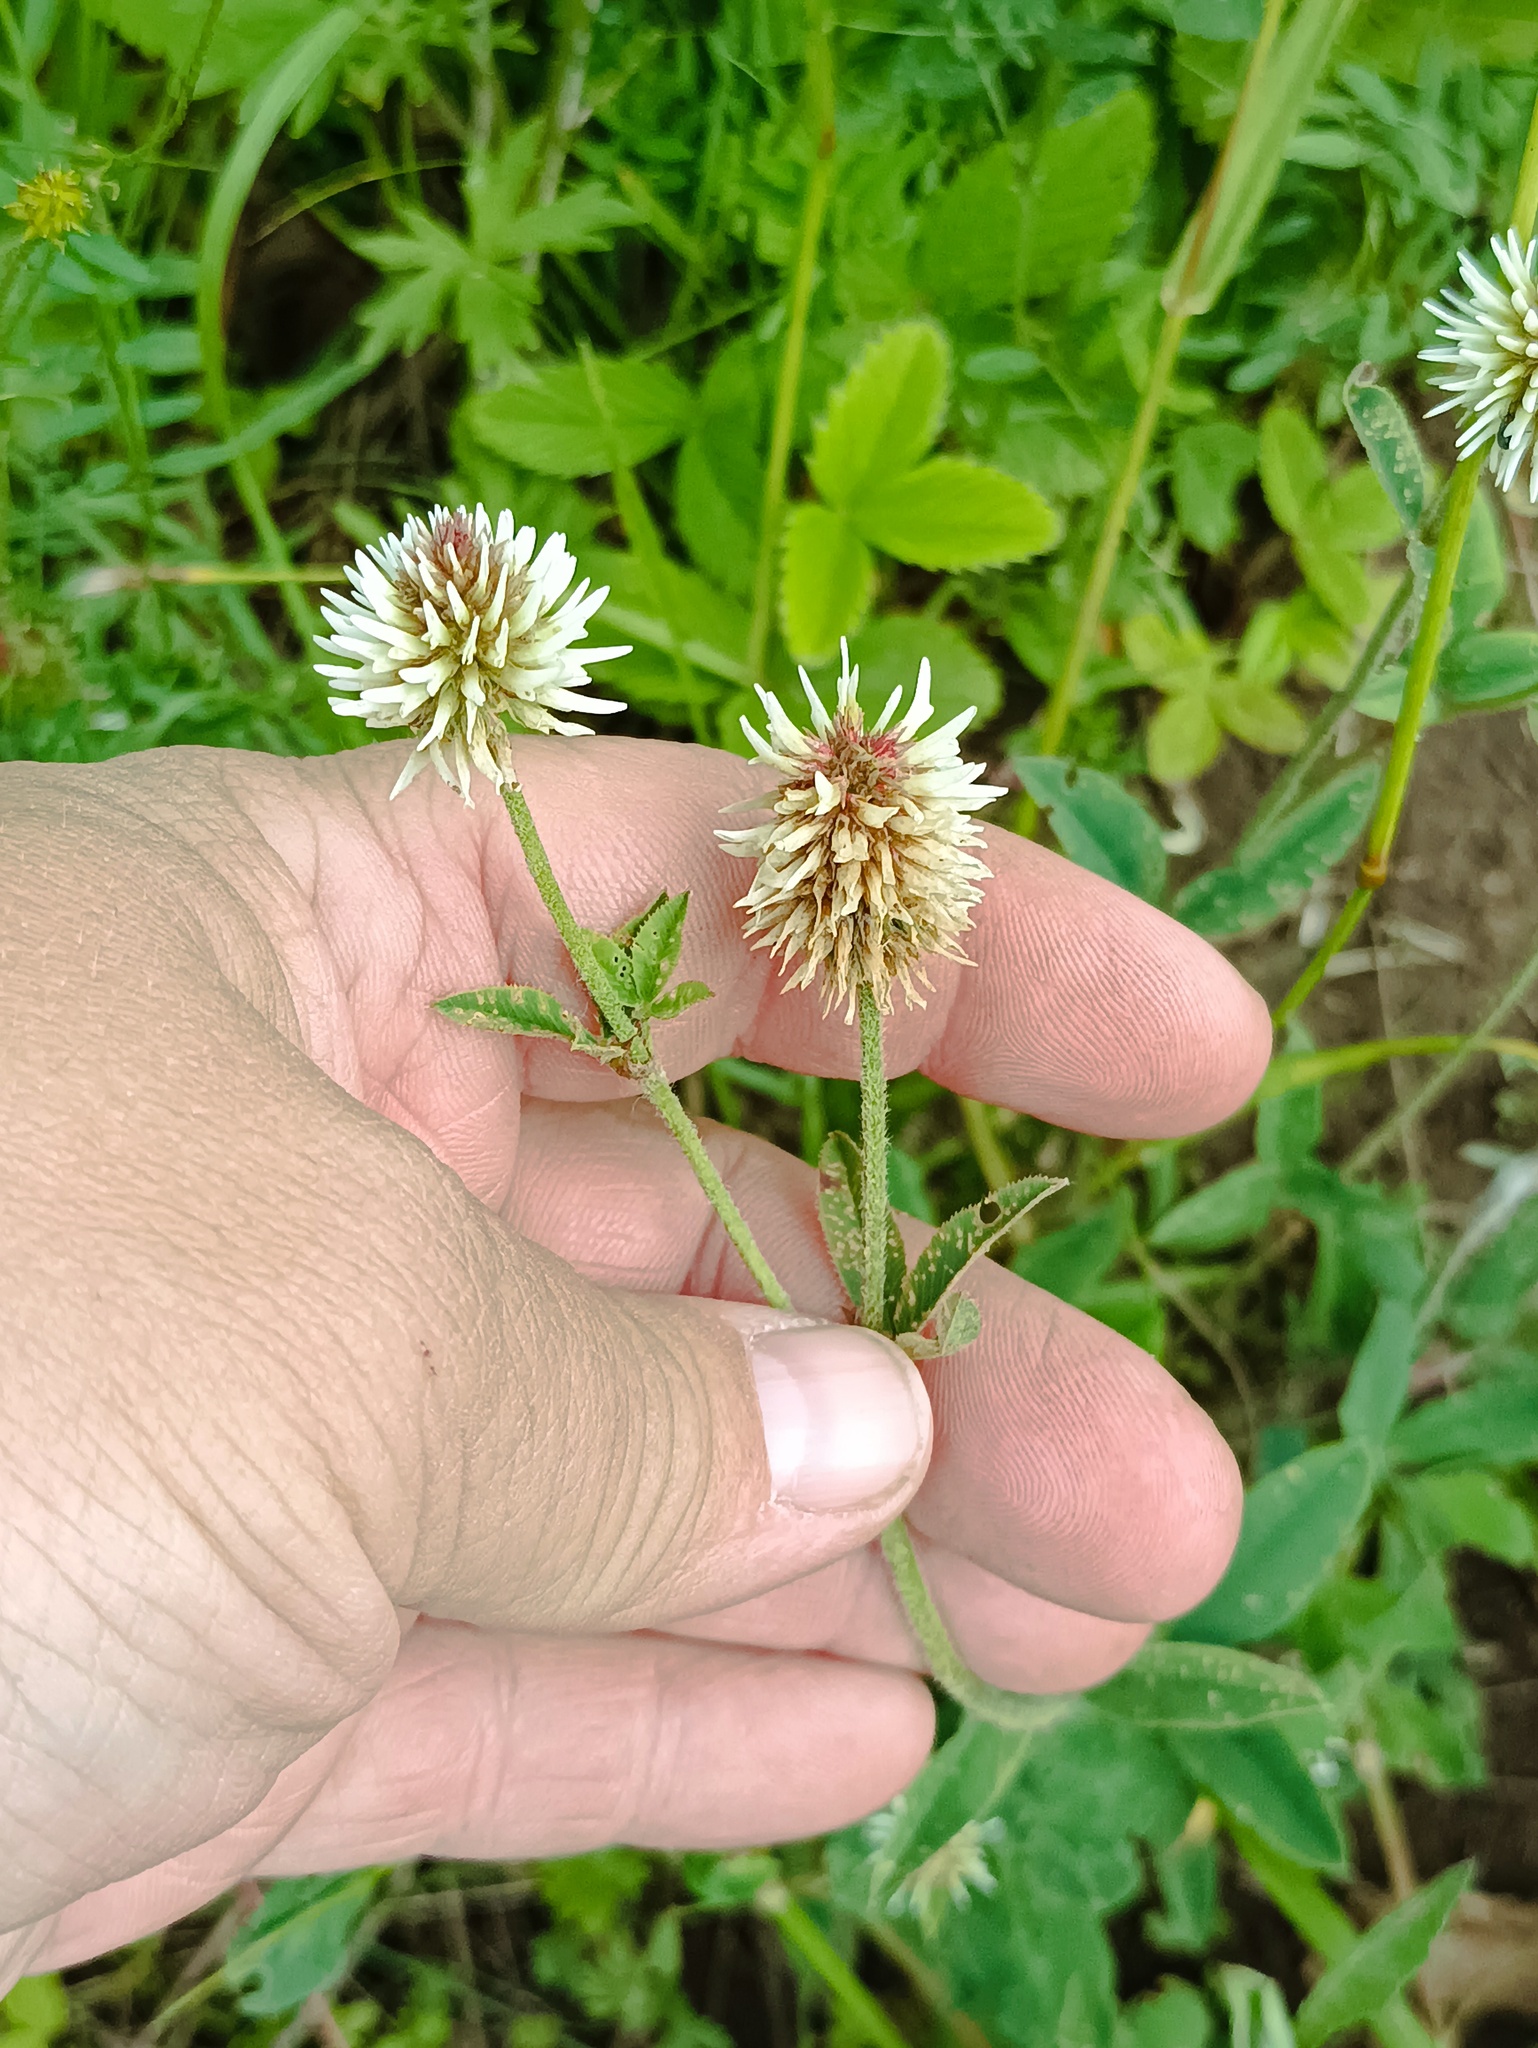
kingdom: Plantae
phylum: Tracheophyta
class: Magnoliopsida
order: Fabales
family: Fabaceae
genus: Trifolium
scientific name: Trifolium montanum
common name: Mountain clover
